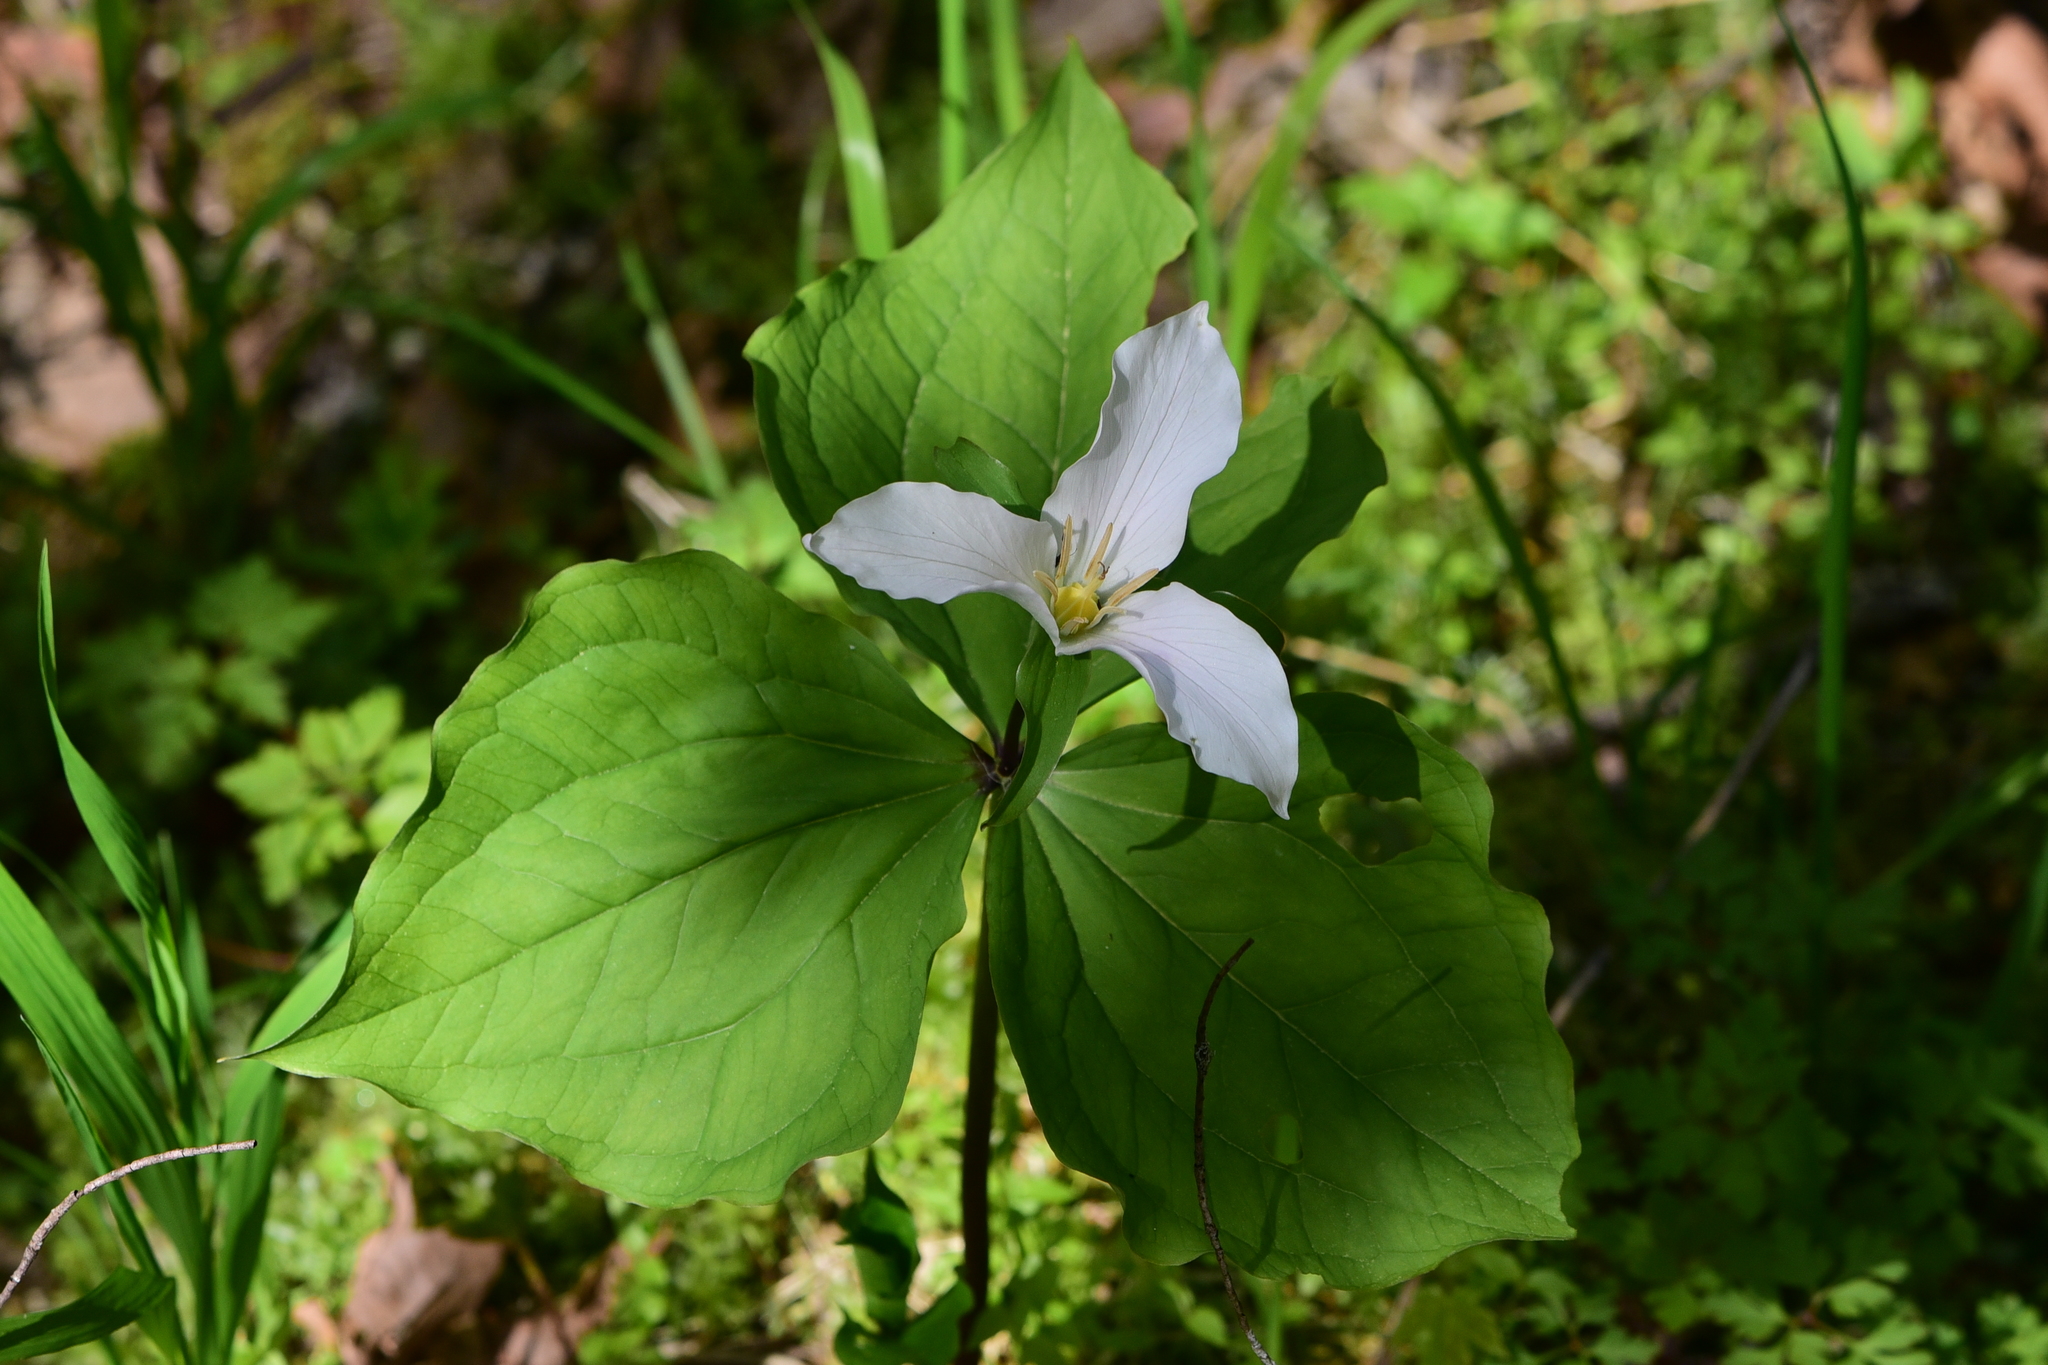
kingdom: Plantae
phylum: Tracheophyta
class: Liliopsida
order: Liliales
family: Melanthiaceae
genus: Trillium
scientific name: Trillium ovatum
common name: Pacific trillium
